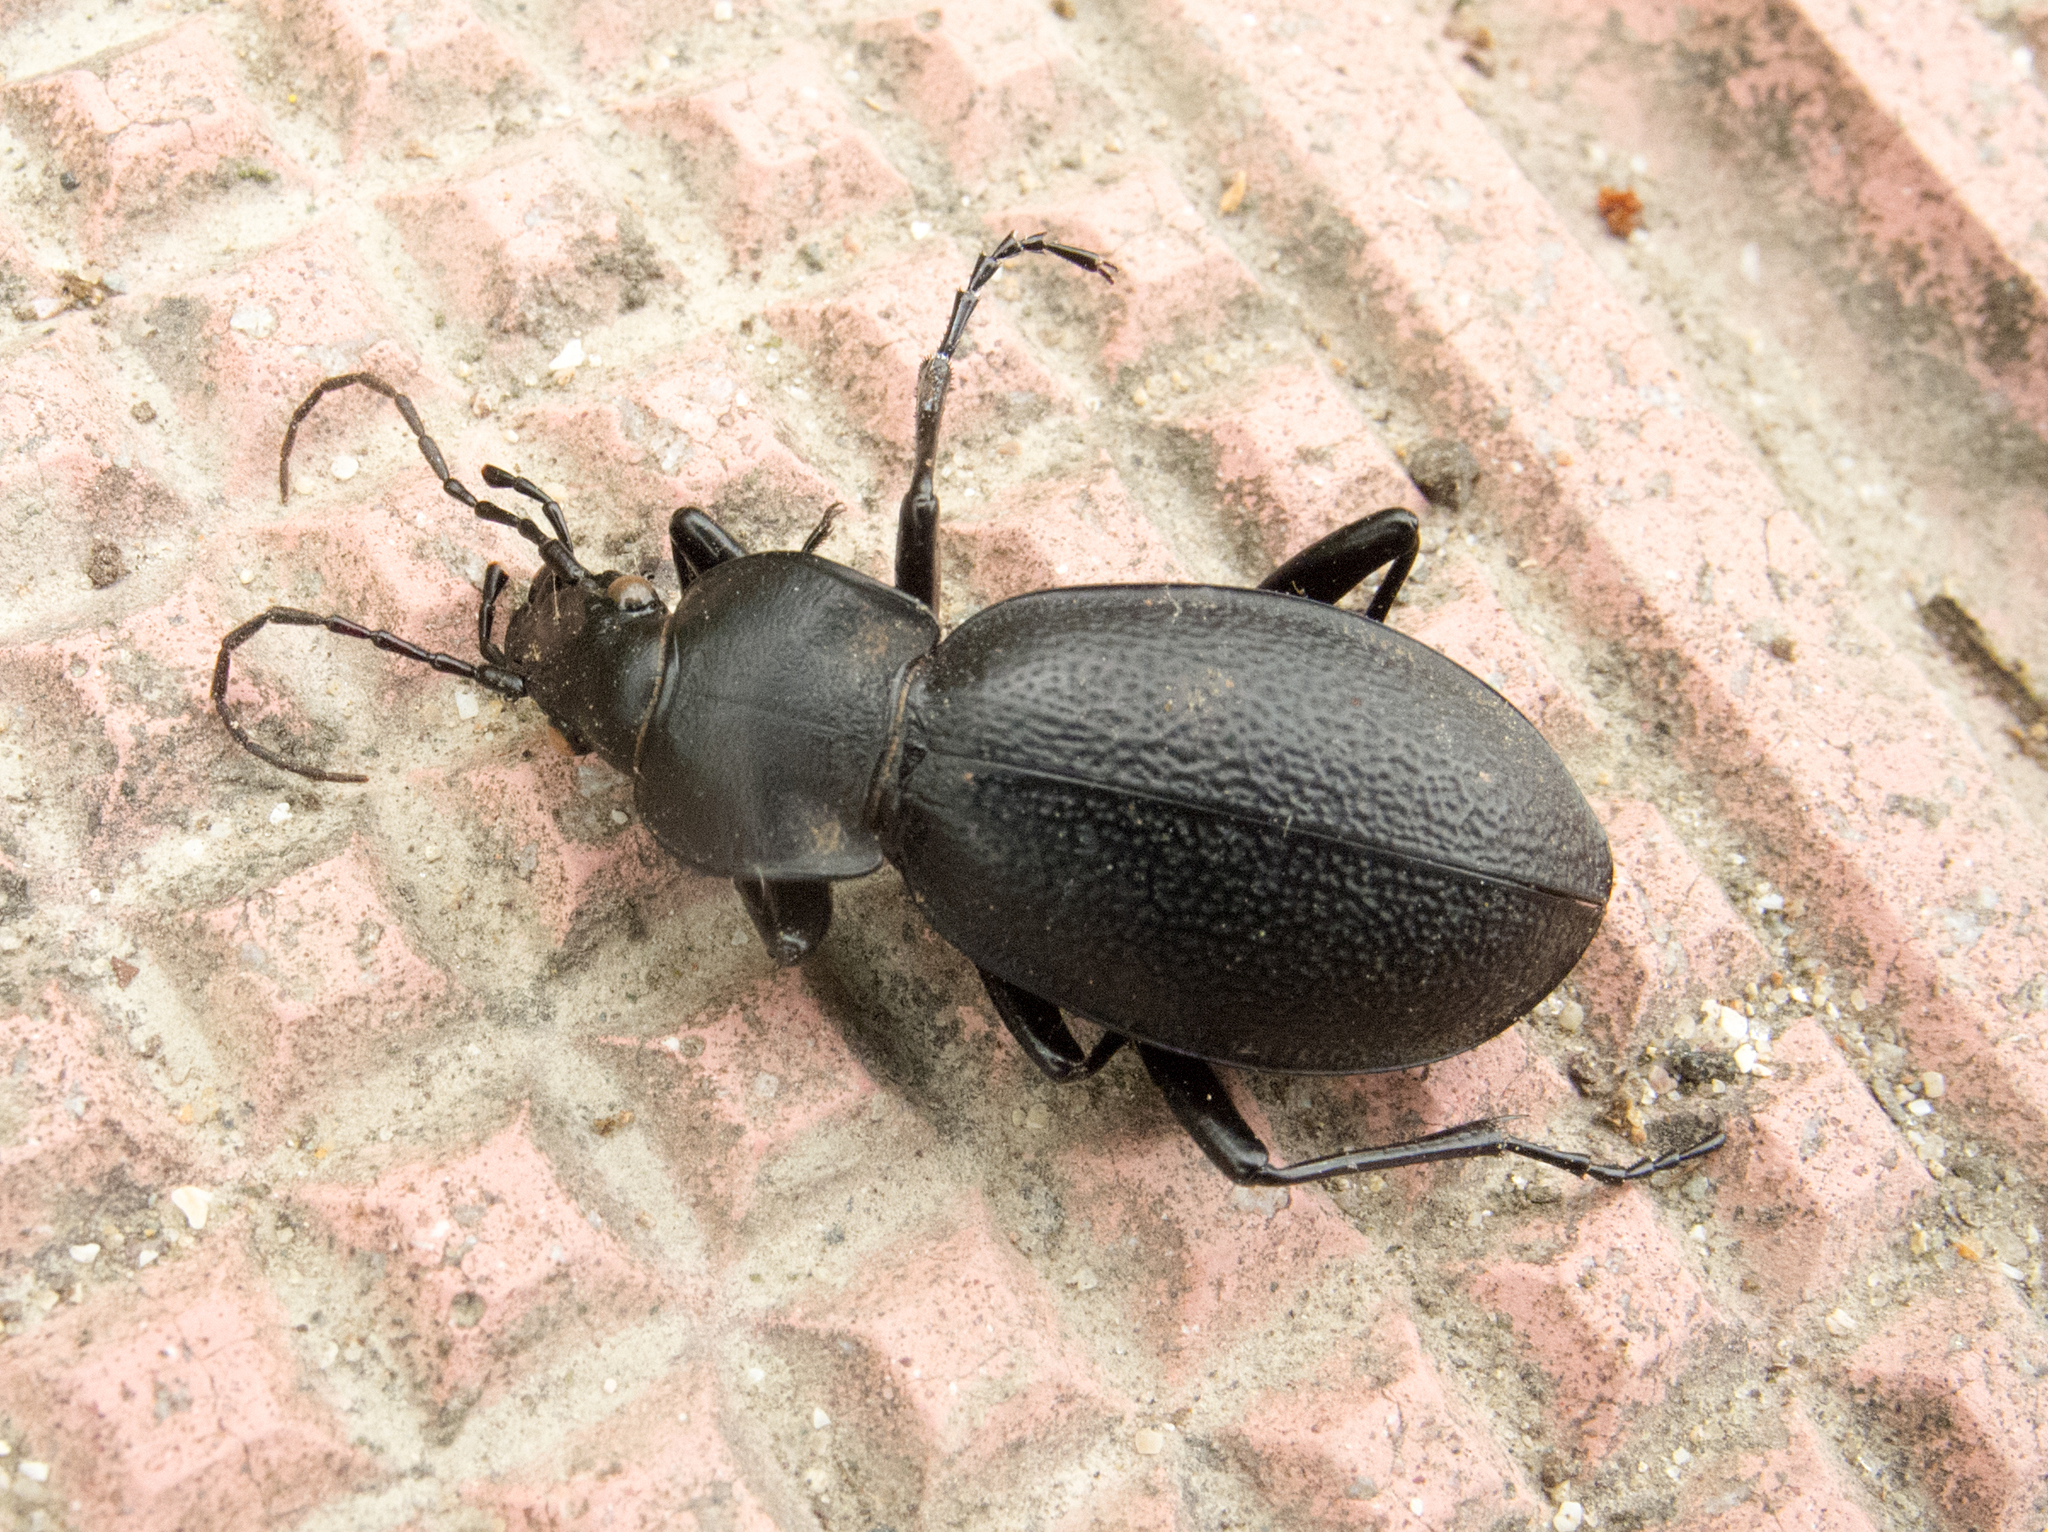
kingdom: Animalia
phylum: Arthropoda
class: Insecta
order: Coleoptera
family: Carabidae
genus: Carabus
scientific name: Carabus coriaceus
